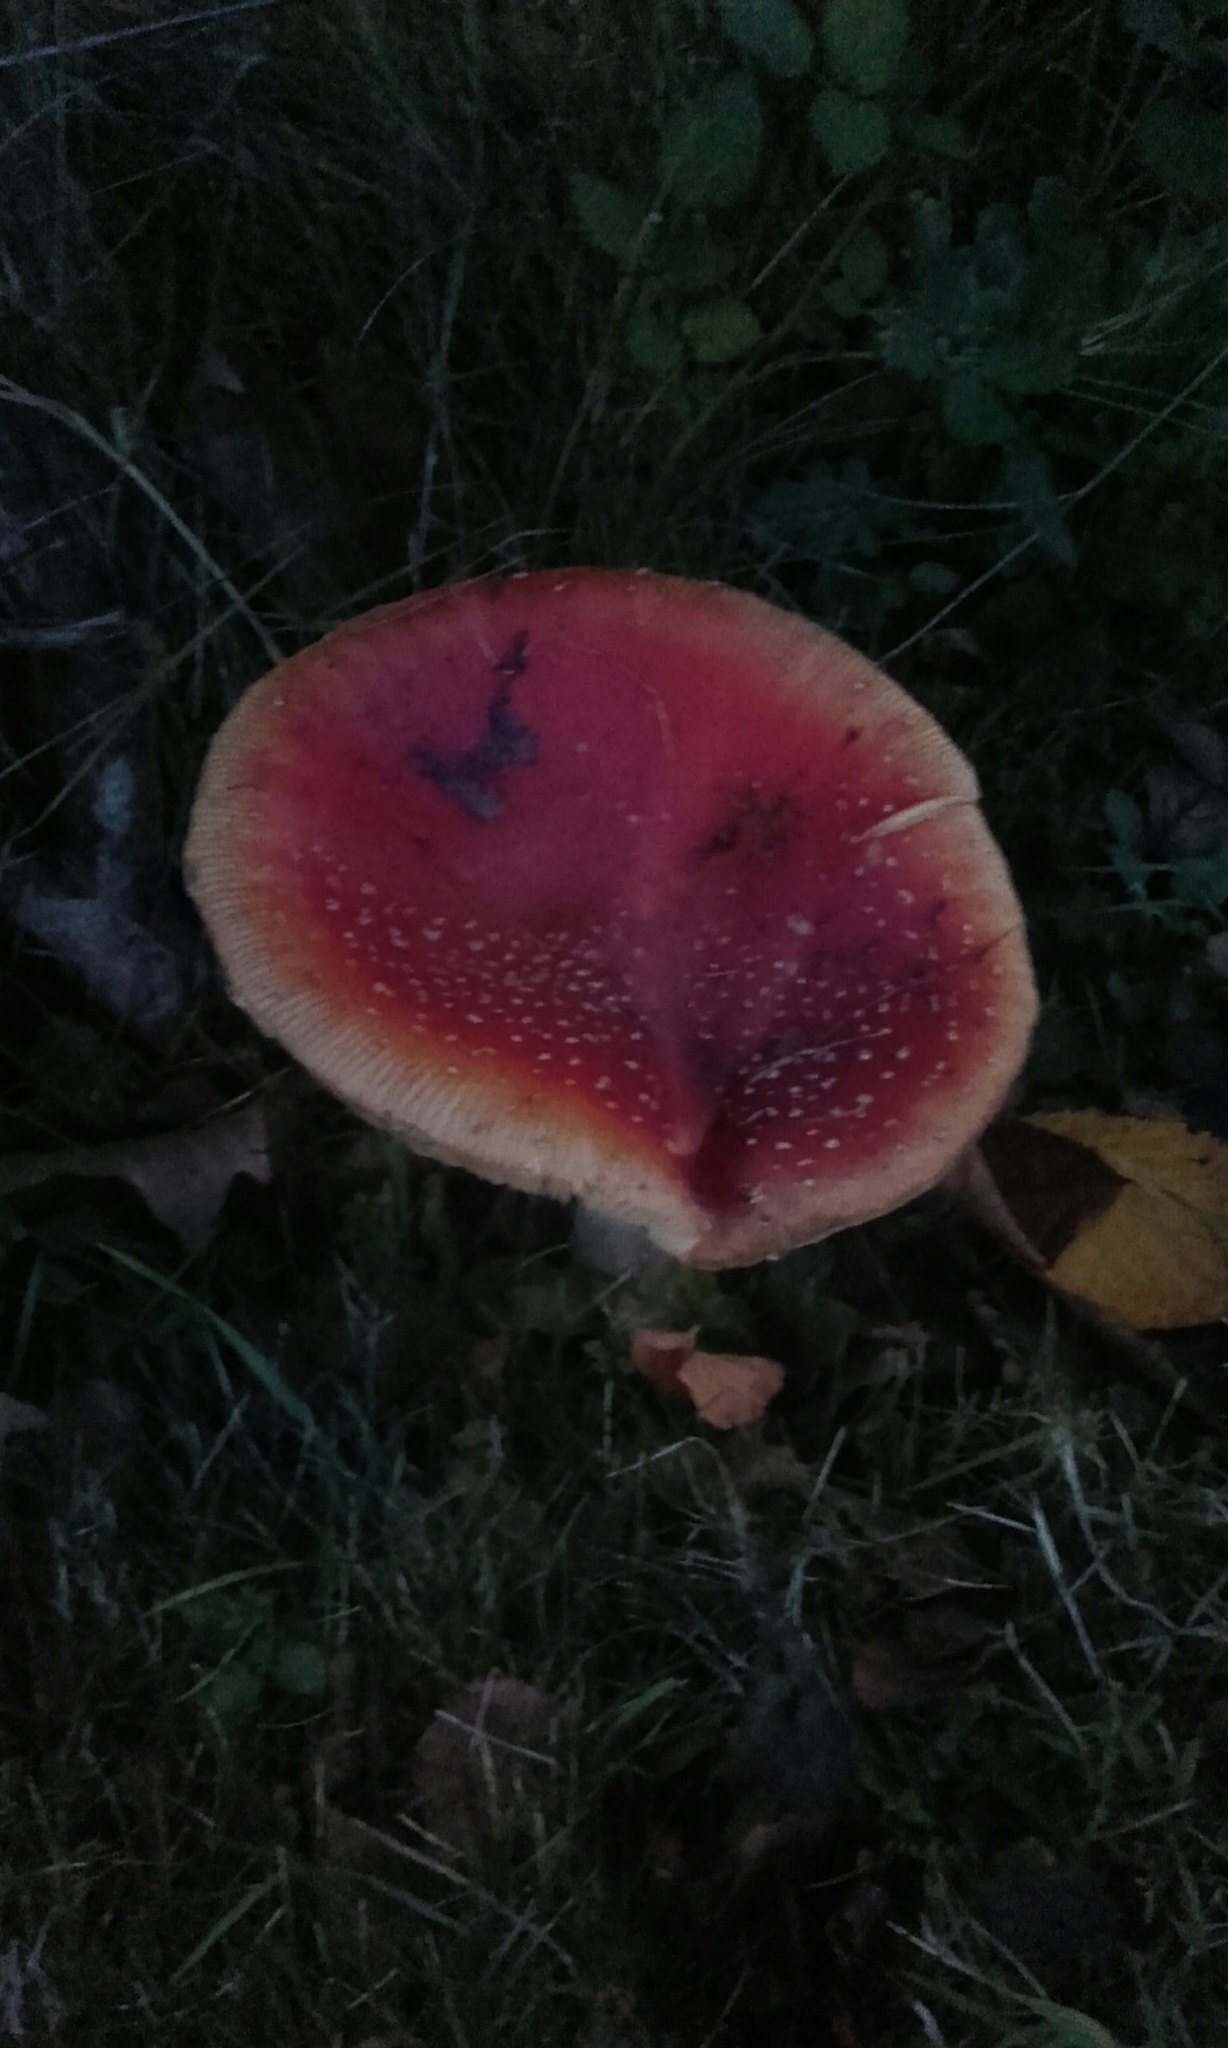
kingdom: Fungi
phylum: Basidiomycota
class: Agaricomycetes
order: Agaricales
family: Amanitaceae
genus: Amanita
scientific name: Amanita muscaria
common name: Fly agaric
